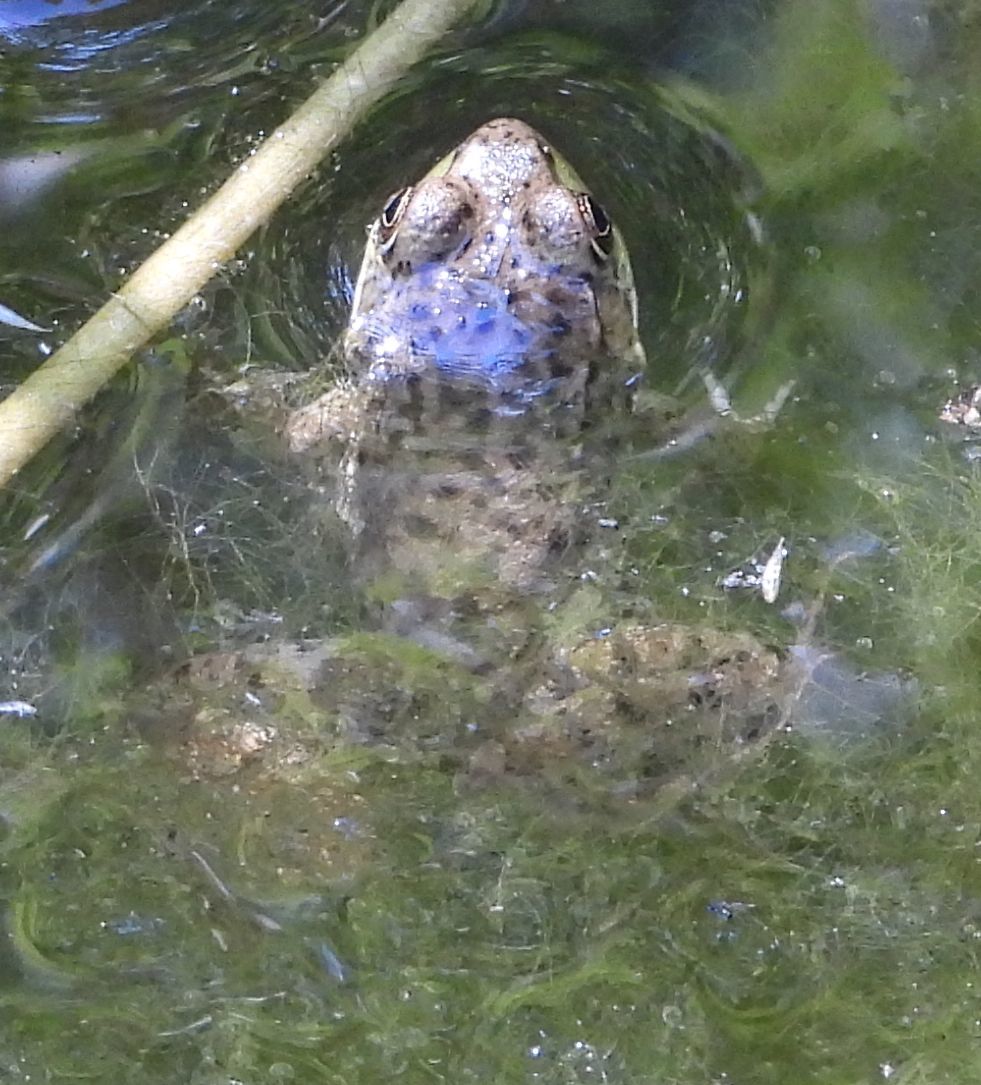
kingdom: Animalia
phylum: Chordata
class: Amphibia
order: Anura
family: Ranidae
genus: Lithobates
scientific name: Lithobates clamitans
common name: Green frog
